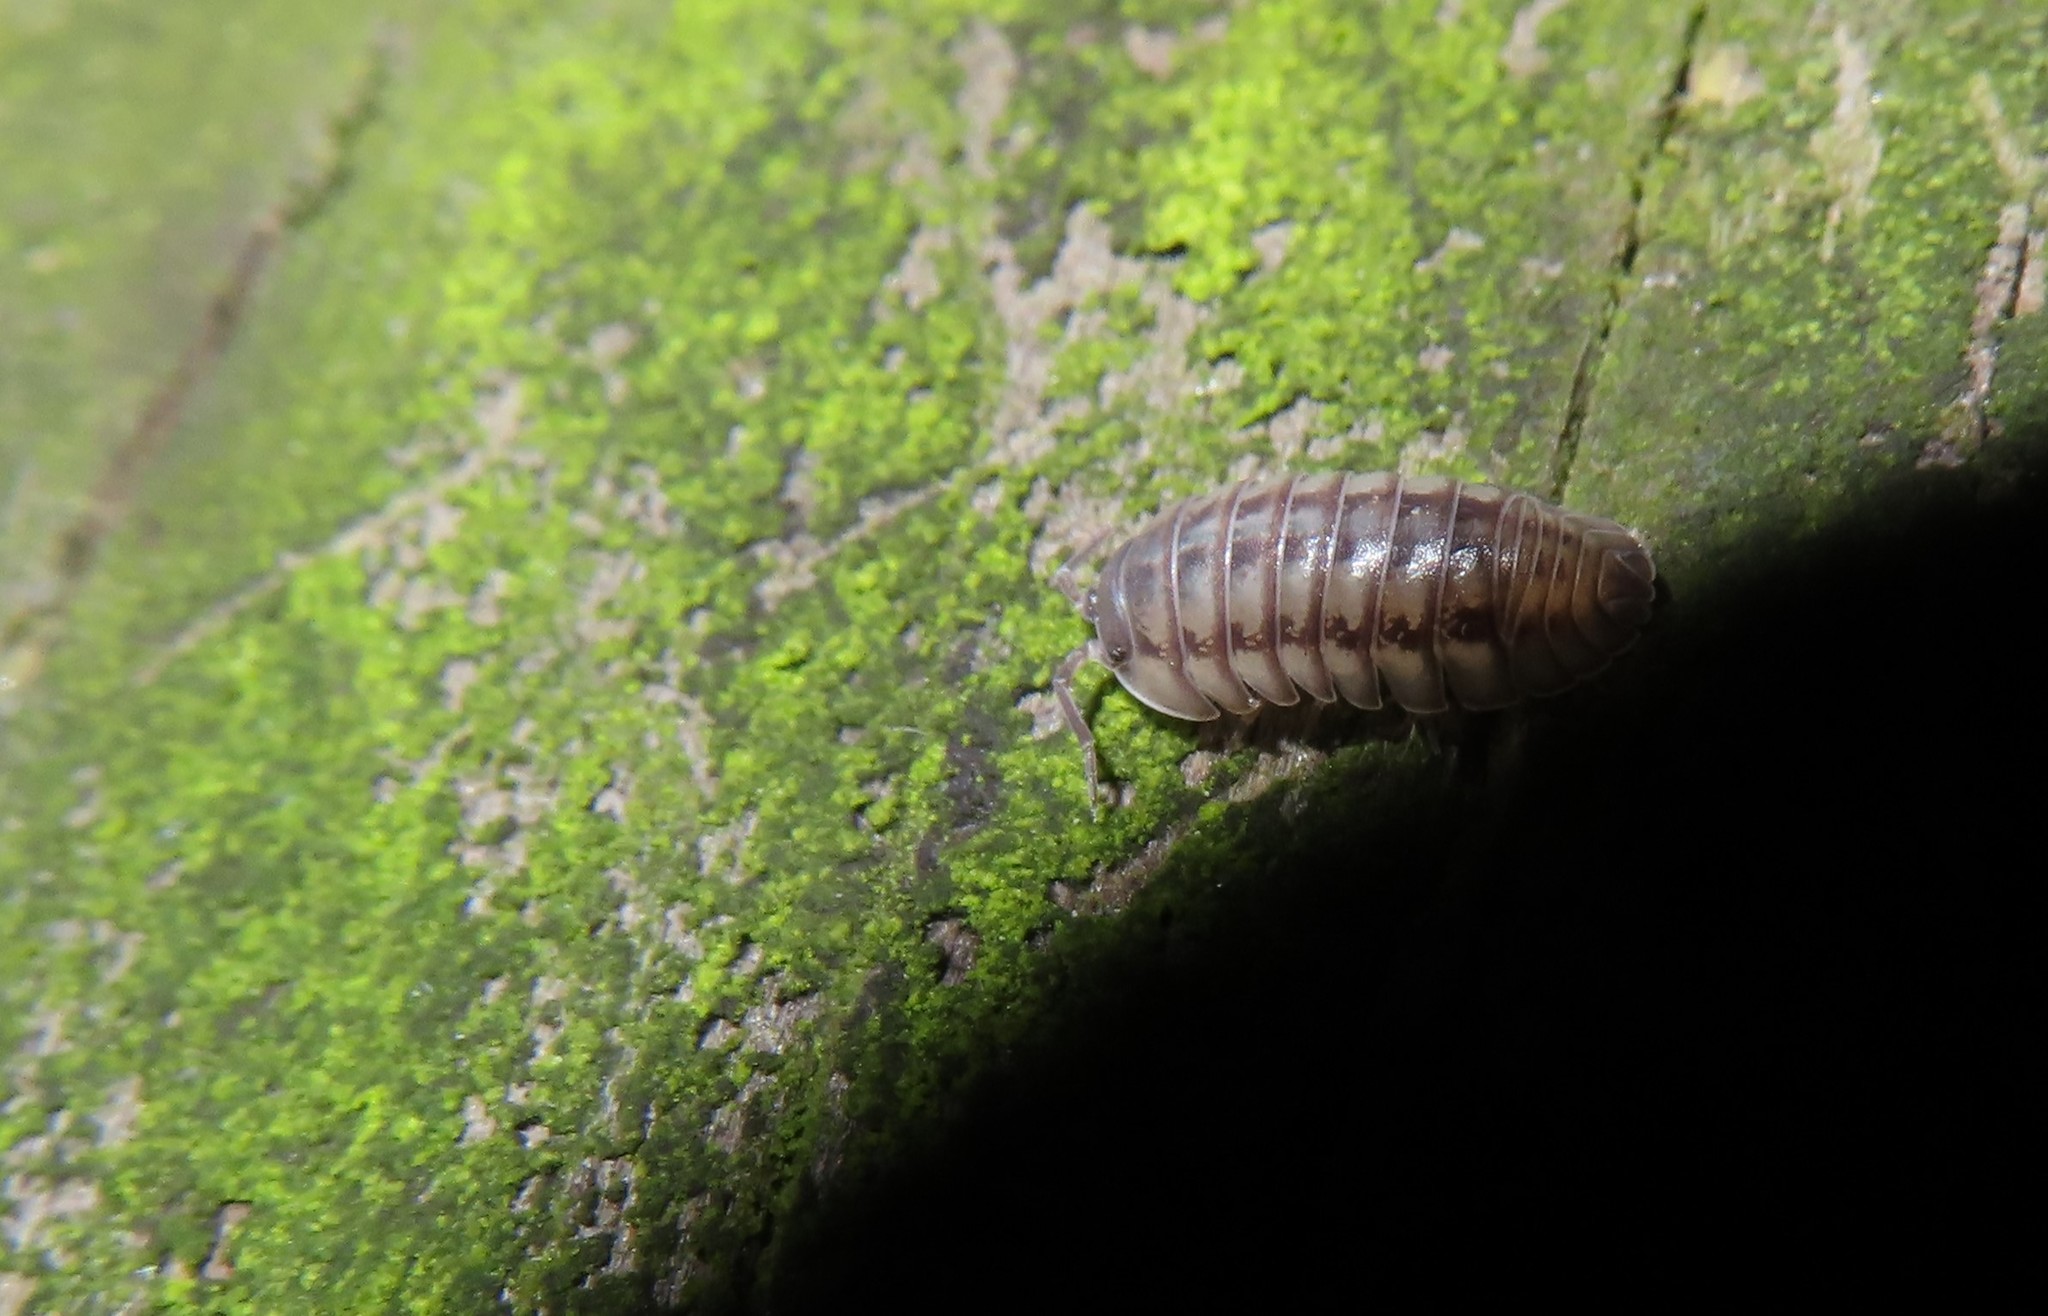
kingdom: Animalia
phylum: Arthropoda
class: Malacostraca
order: Isopoda
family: Armadillidiidae
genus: Armadillidium
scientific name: Armadillidium nasatum
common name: Isopod
